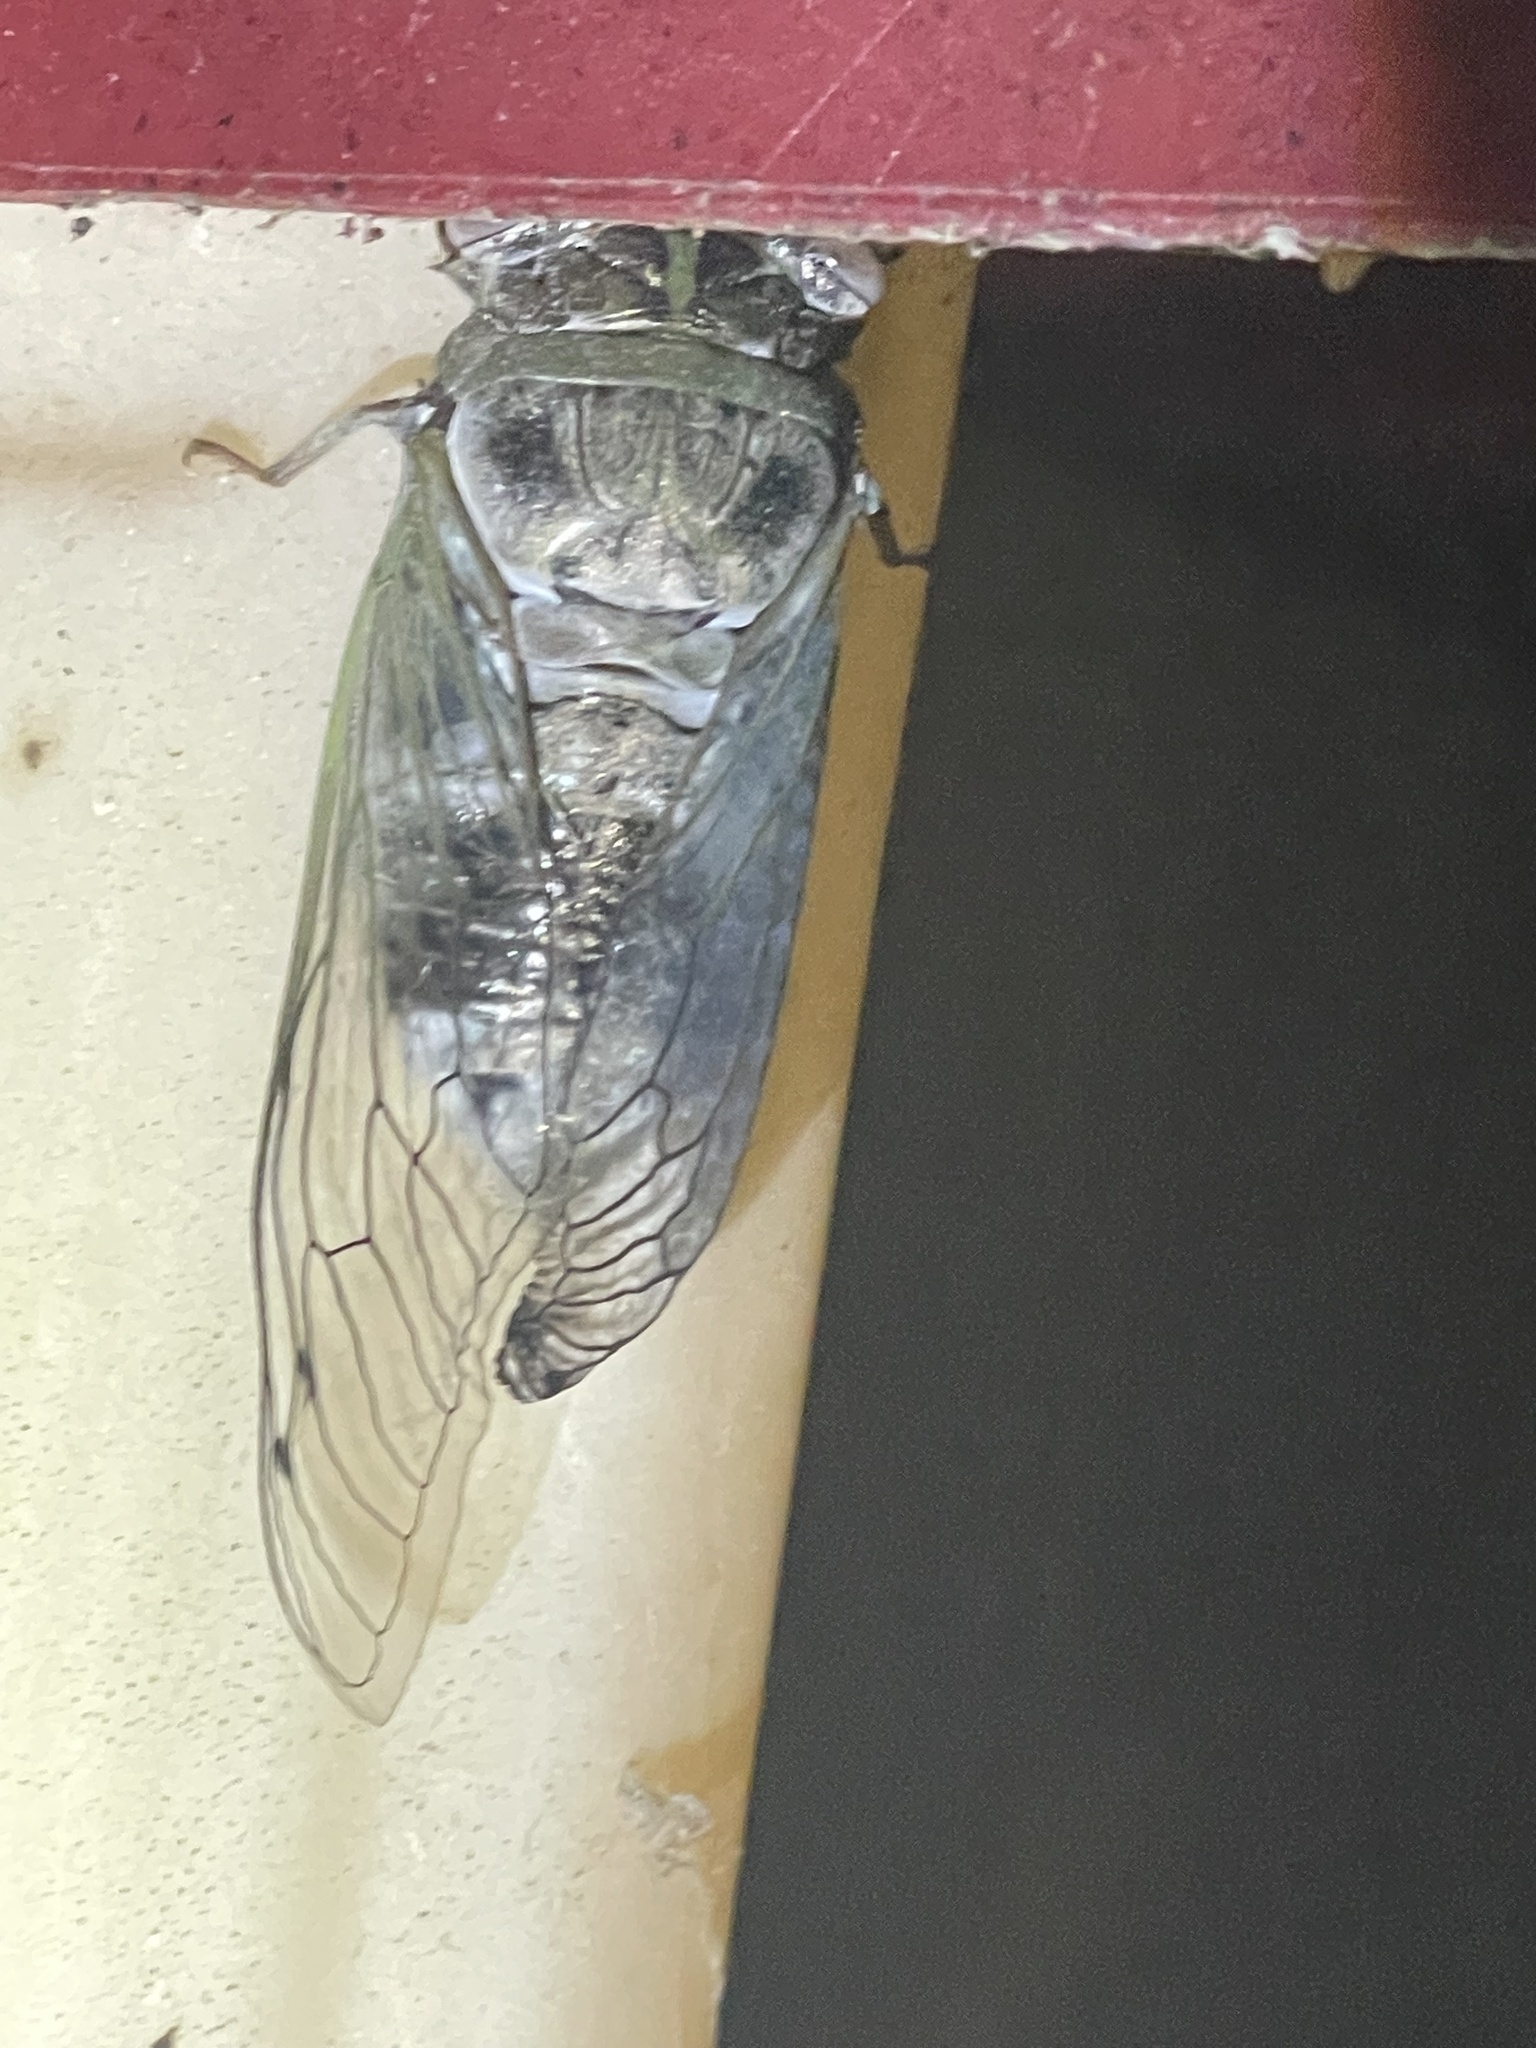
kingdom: Animalia
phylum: Arthropoda
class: Insecta
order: Hemiptera
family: Cicadidae
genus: Diceroprocta
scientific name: Diceroprocta grossa
